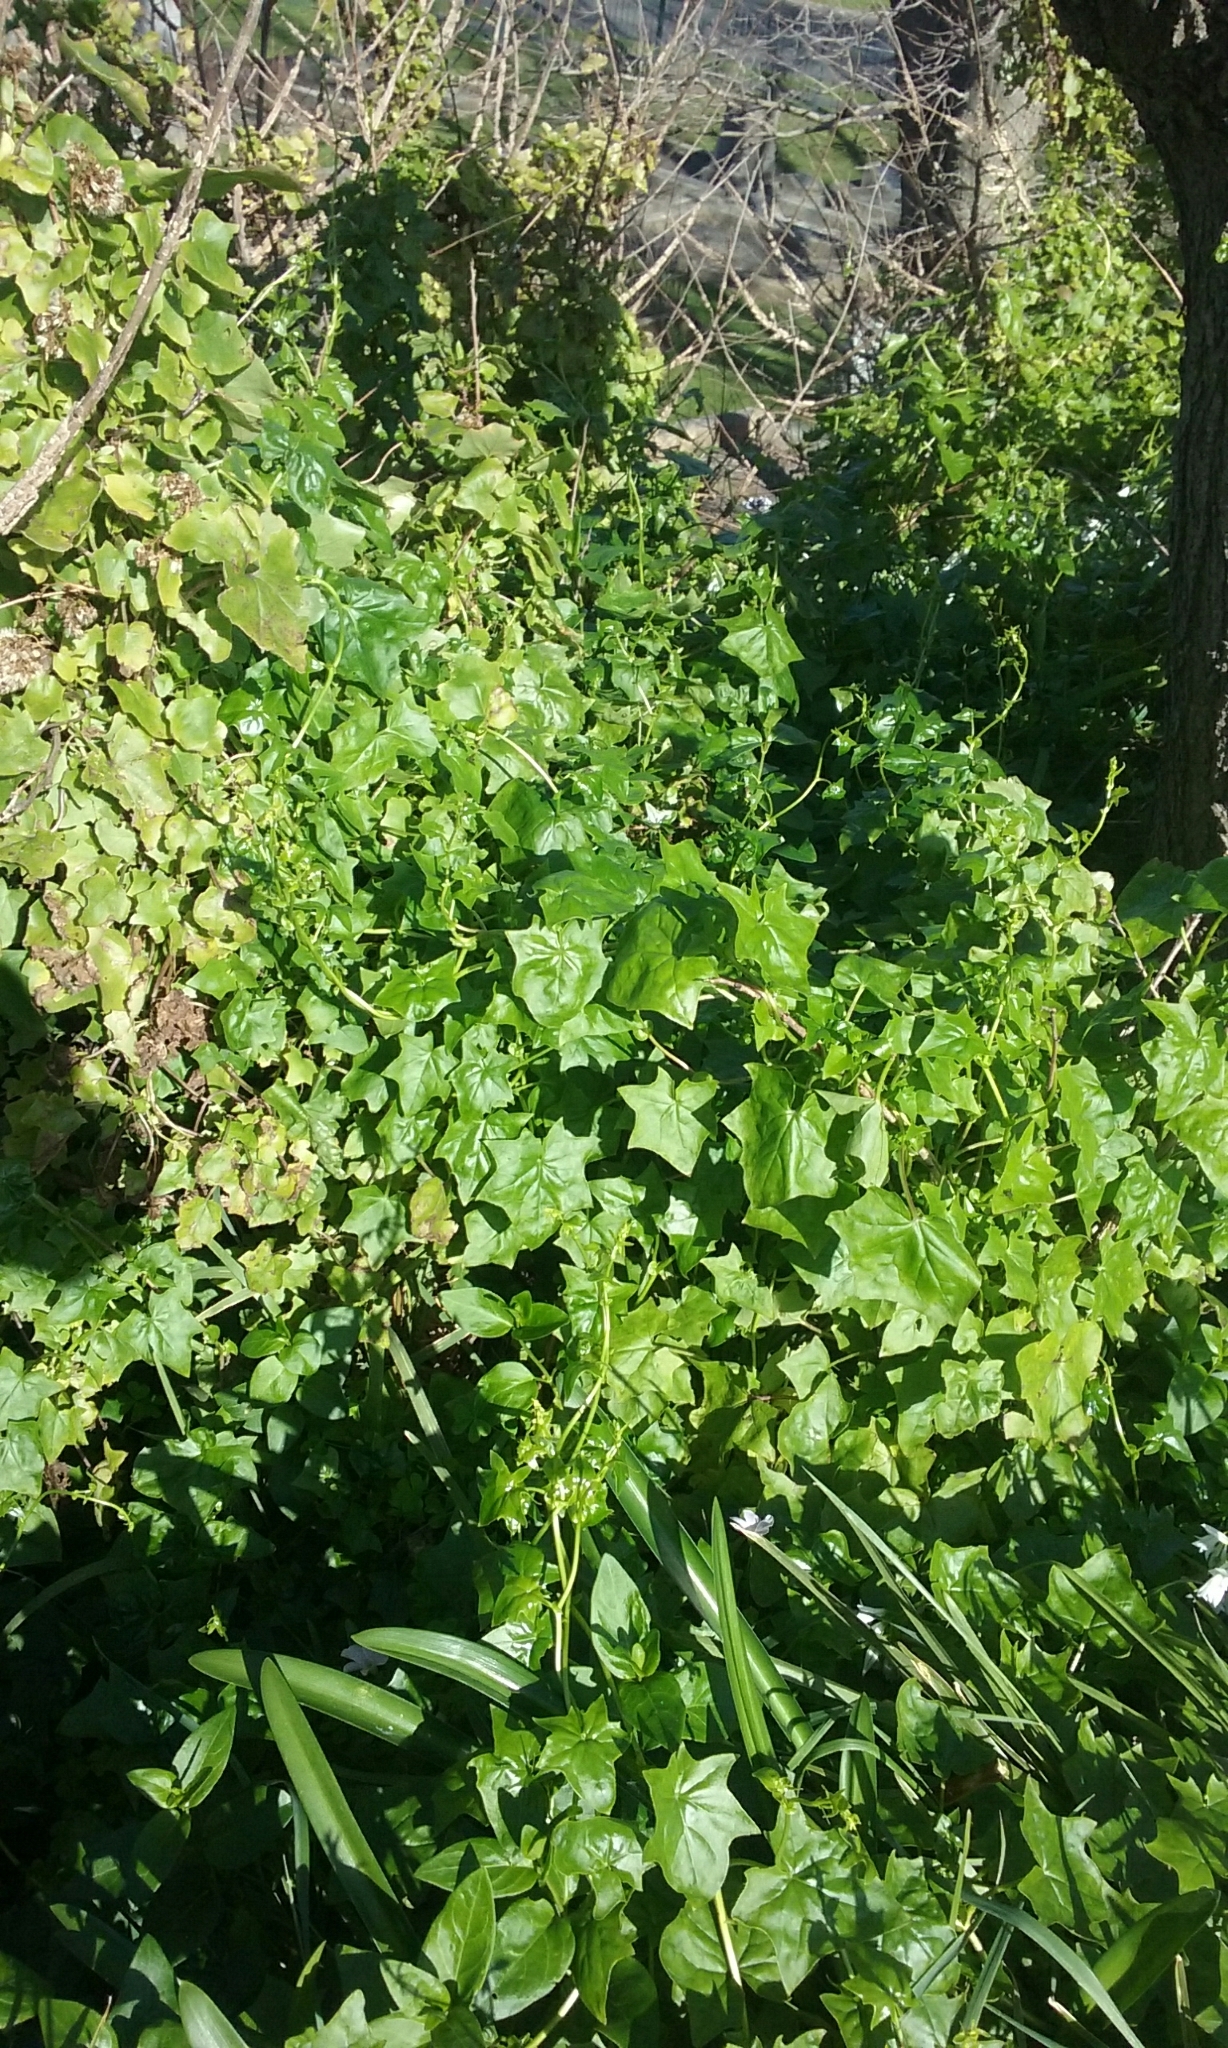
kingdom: Plantae
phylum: Tracheophyta
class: Magnoliopsida
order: Asterales
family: Asteraceae
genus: Delairea
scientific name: Delairea odorata
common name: Cape-ivy
